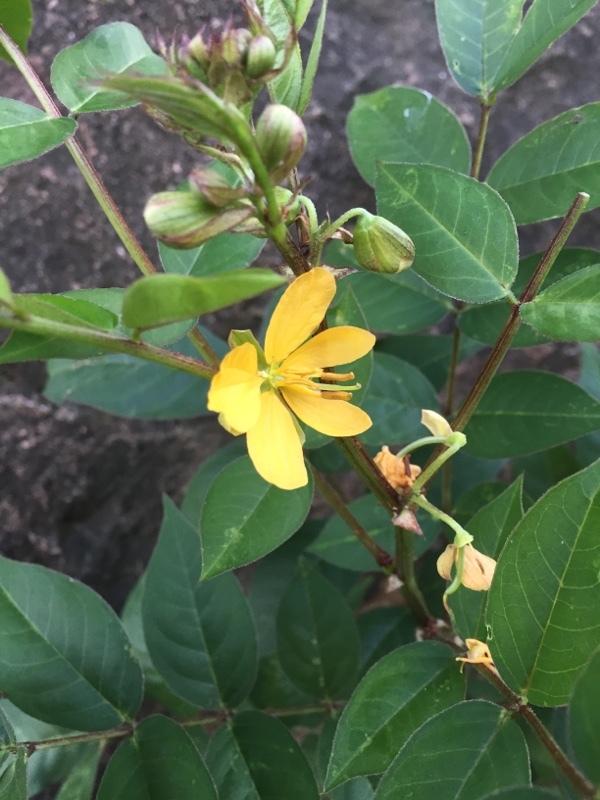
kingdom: Plantae
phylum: Tracheophyta
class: Magnoliopsida
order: Fabales
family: Fabaceae
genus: Senna
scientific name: Senna occidentalis
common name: Septicweed
